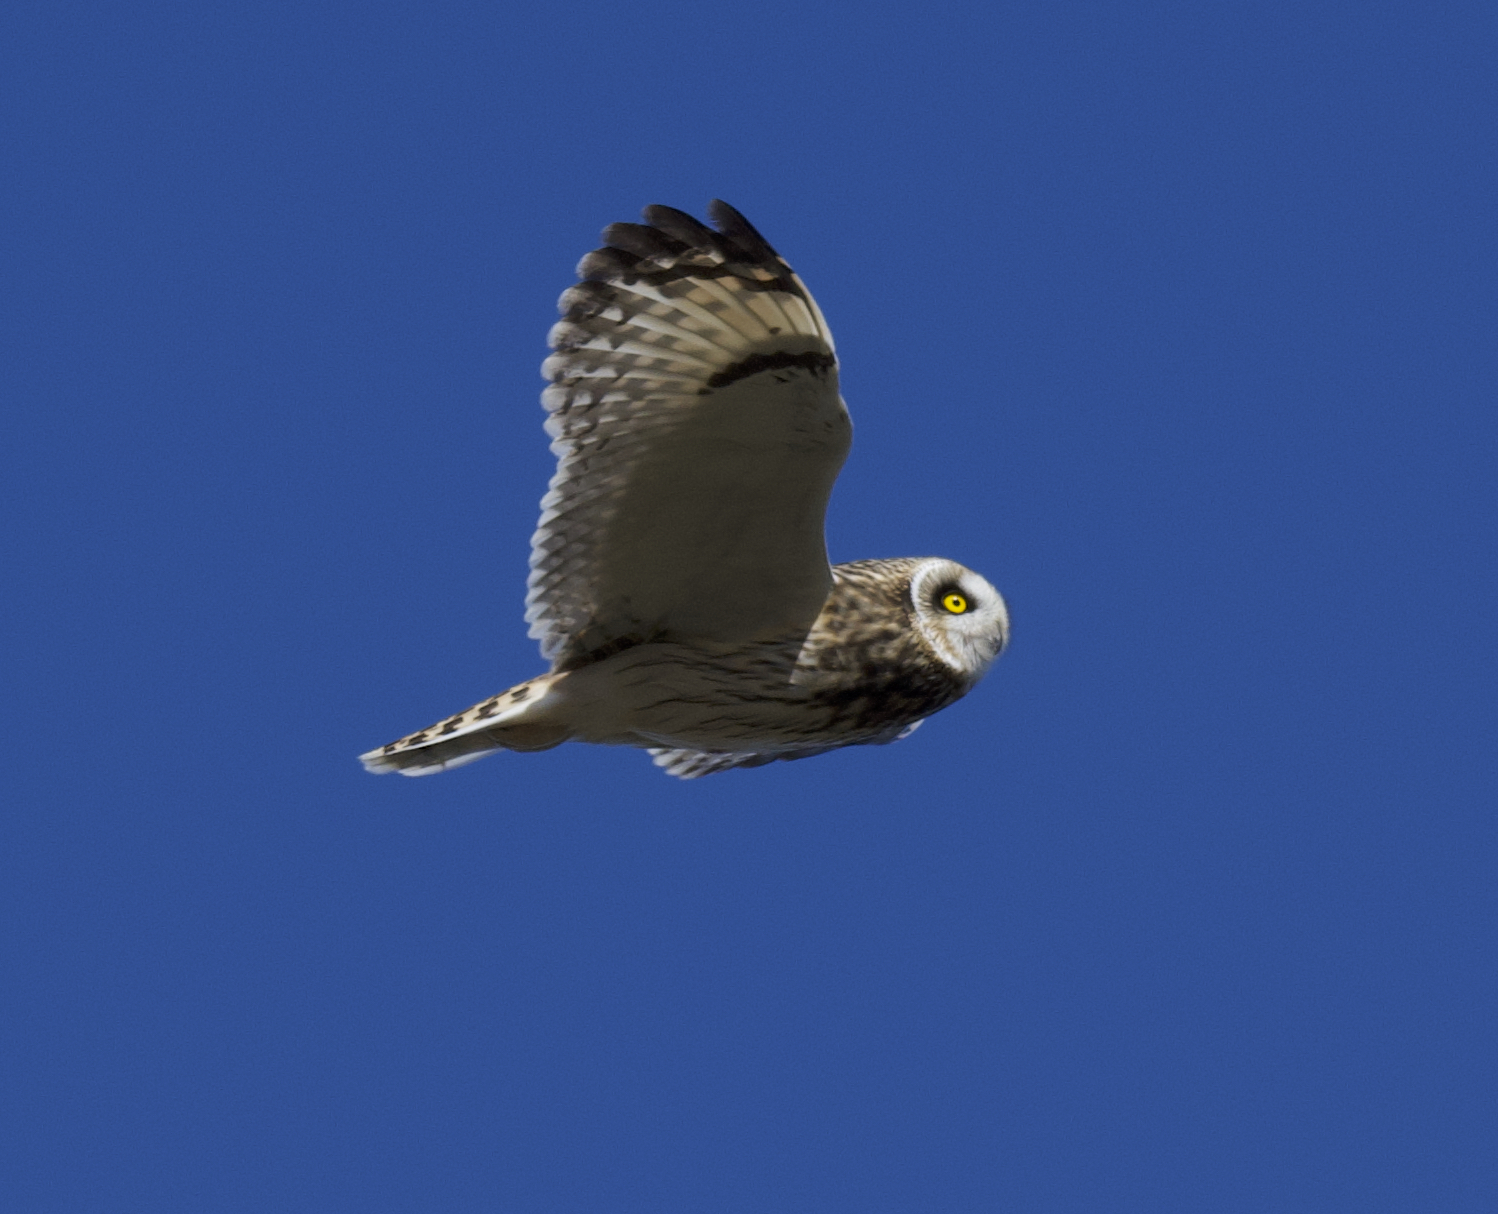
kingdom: Animalia
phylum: Chordata
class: Aves
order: Strigiformes
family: Strigidae
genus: Asio
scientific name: Asio flammeus
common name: Short-eared owl
